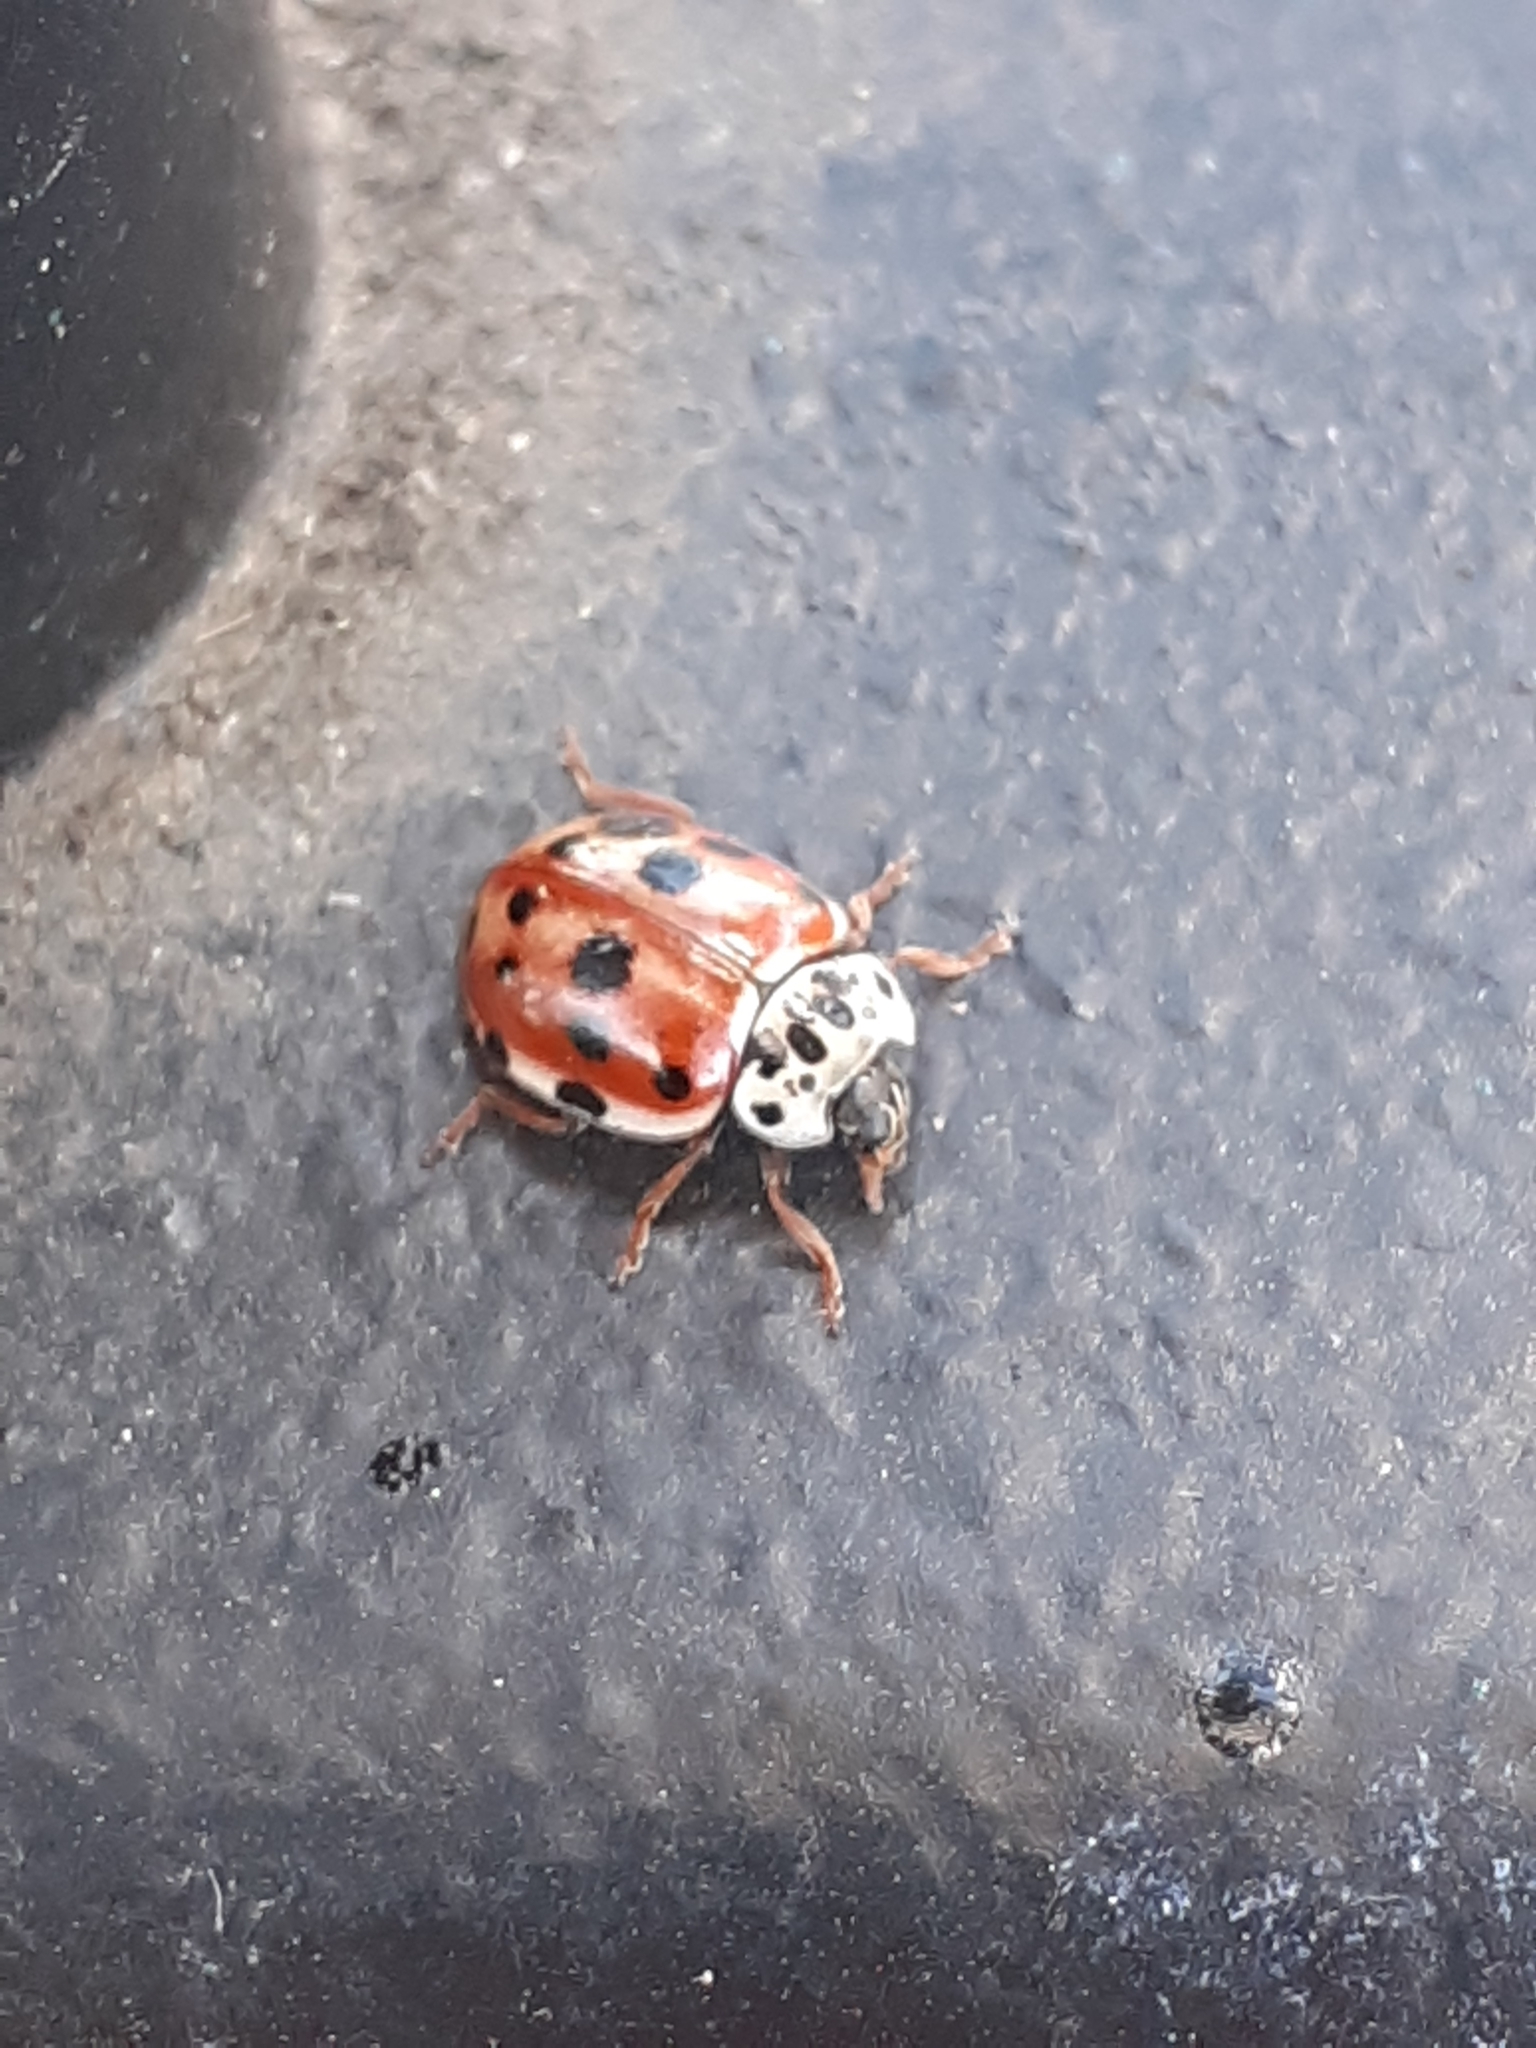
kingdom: Animalia
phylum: Arthropoda
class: Insecta
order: Coleoptera
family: Coccinellidae
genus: Harmonia
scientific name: Harmonia quadripunctata
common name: Cream-streaked ladybird
